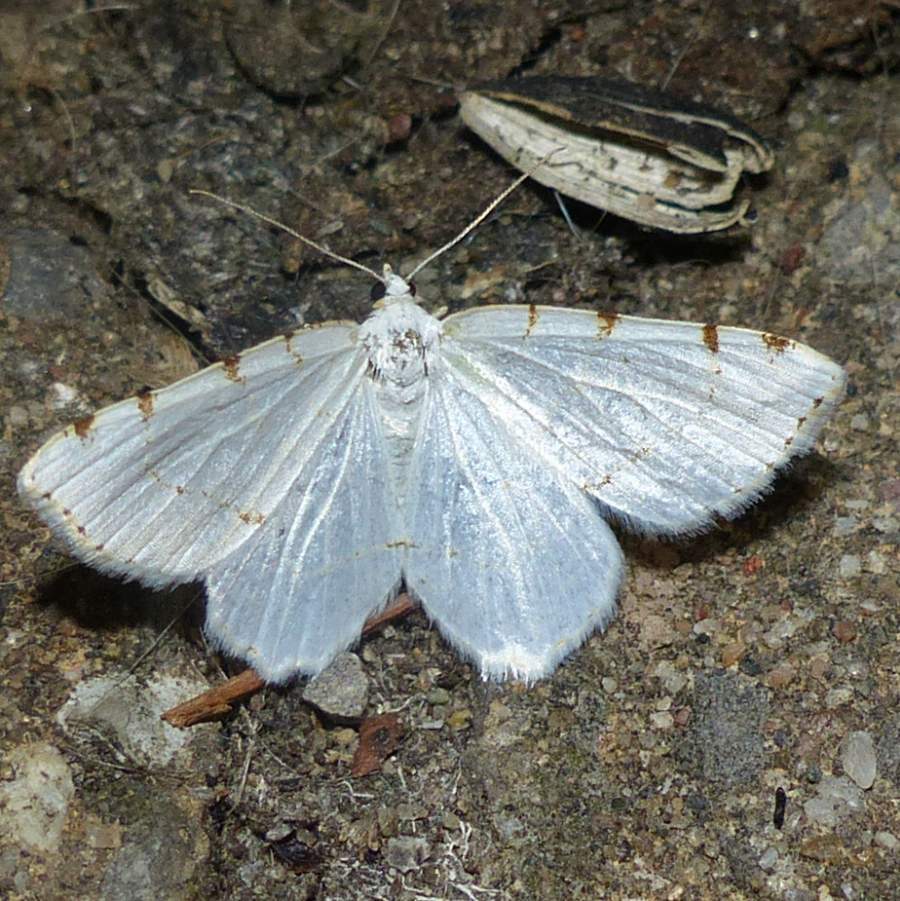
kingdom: Animalia
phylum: Arthropoda
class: Insecta
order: Lepidoptera
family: Geometridae
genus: Macaria
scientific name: Macaria pustularia
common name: Lesser maple spanworm moth
